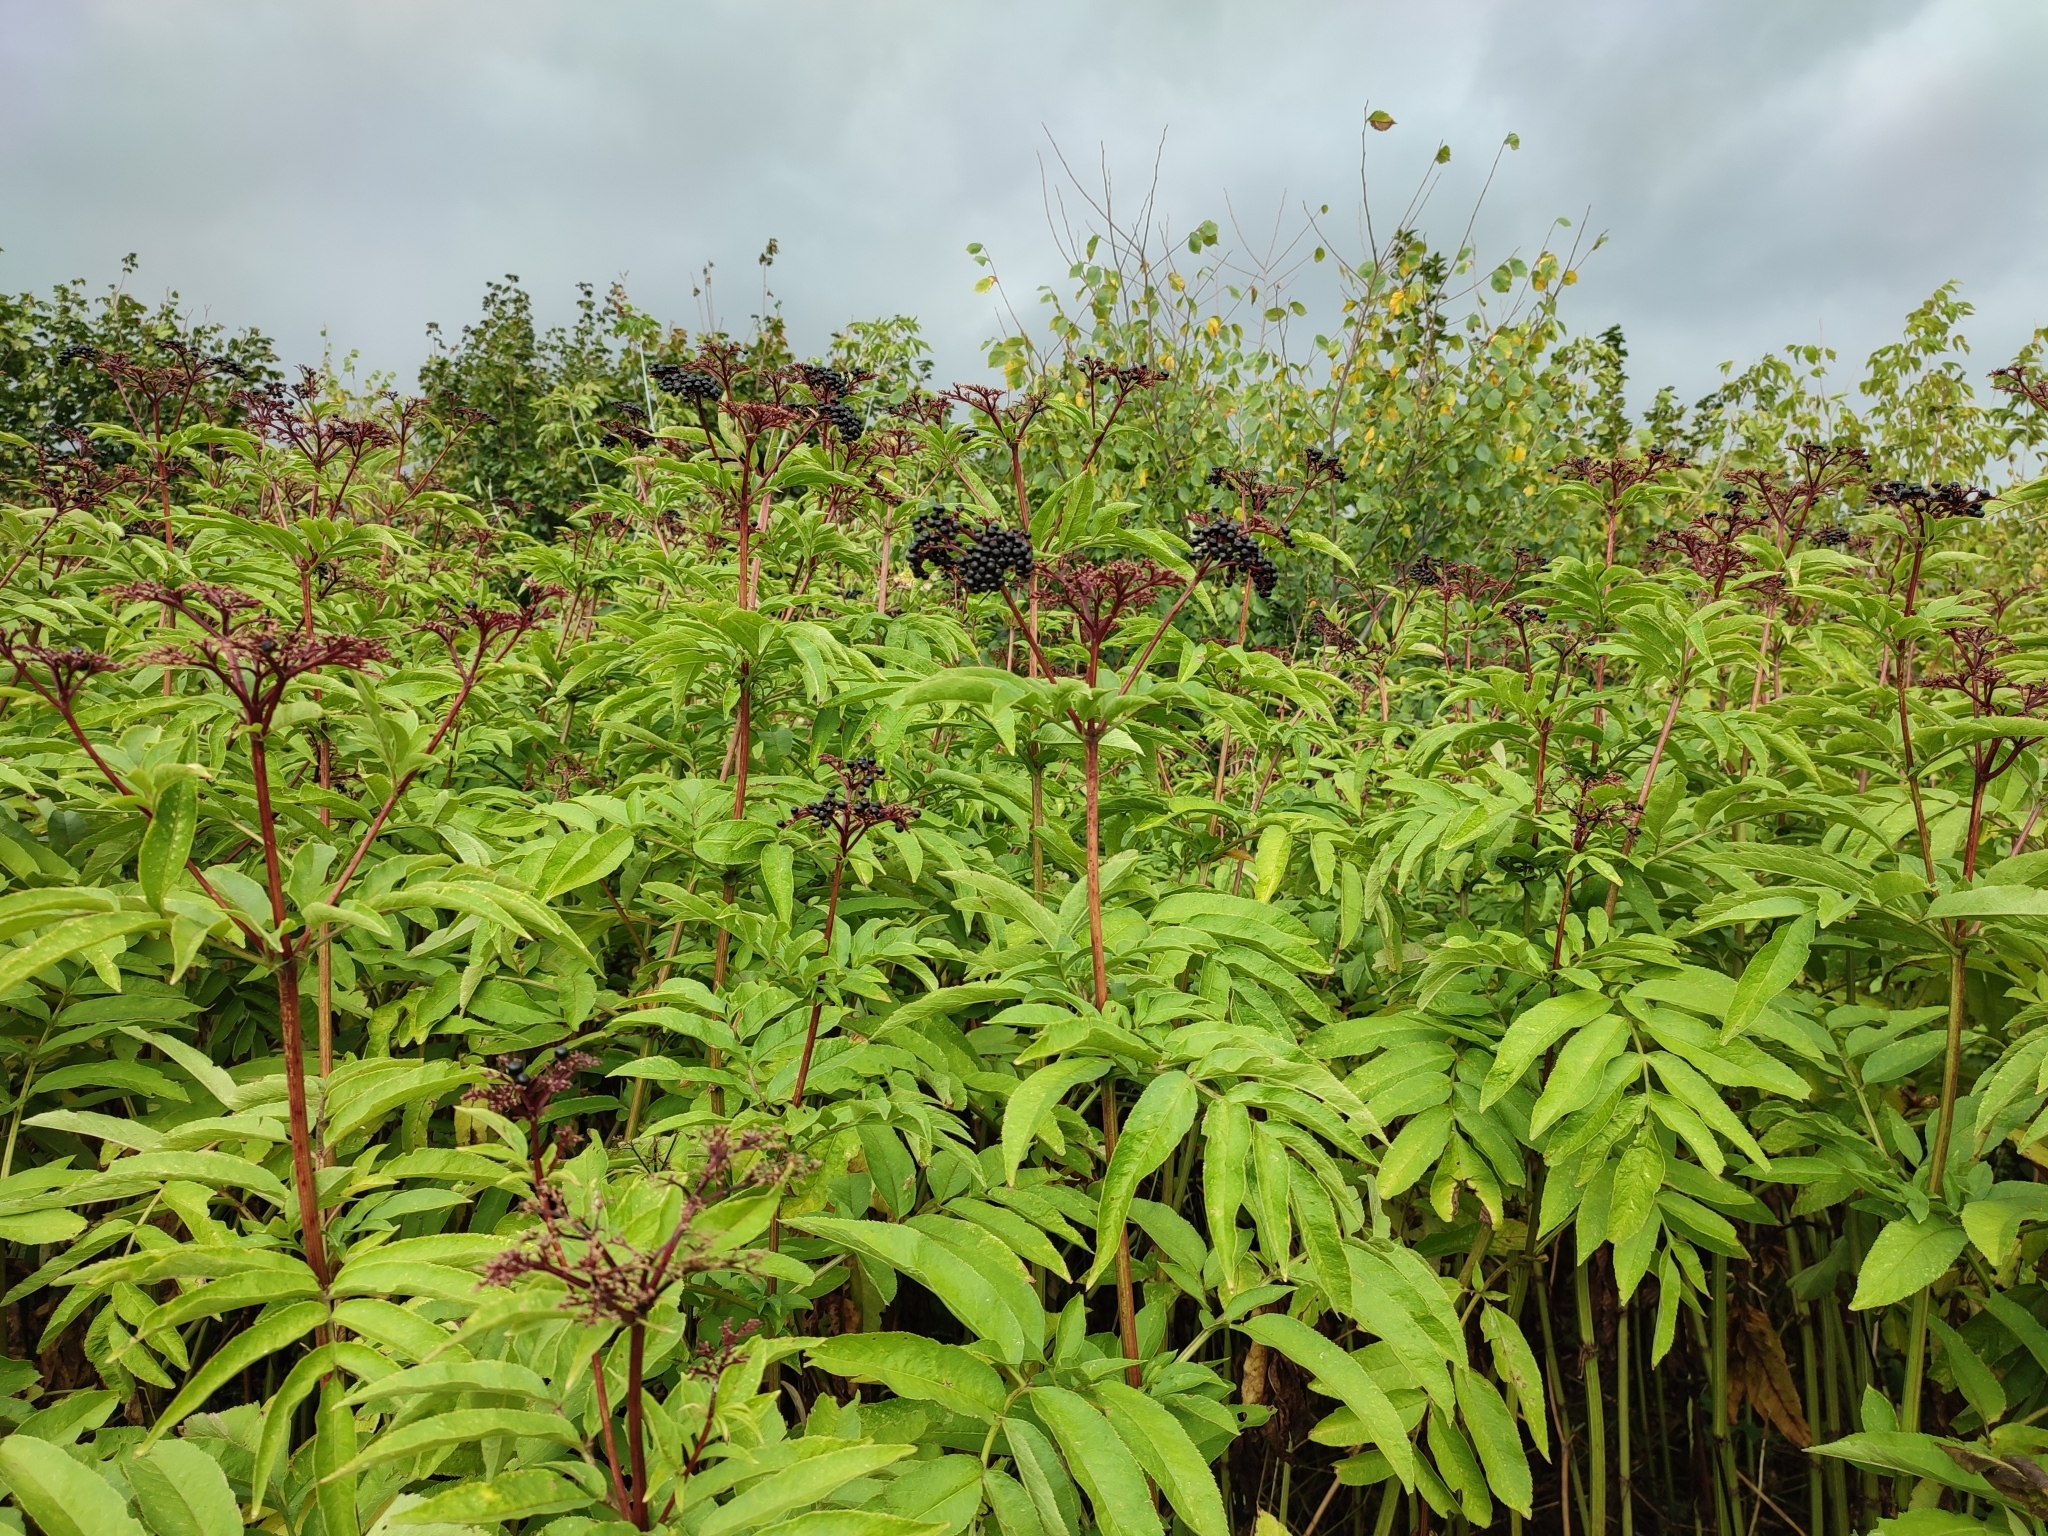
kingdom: Plantae
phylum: Tracheophyta
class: Magnoliopsida
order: Dipsacales
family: Viburnaceae
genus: Sambucus
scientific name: Sambucus ebulus
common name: Dwarf elder
